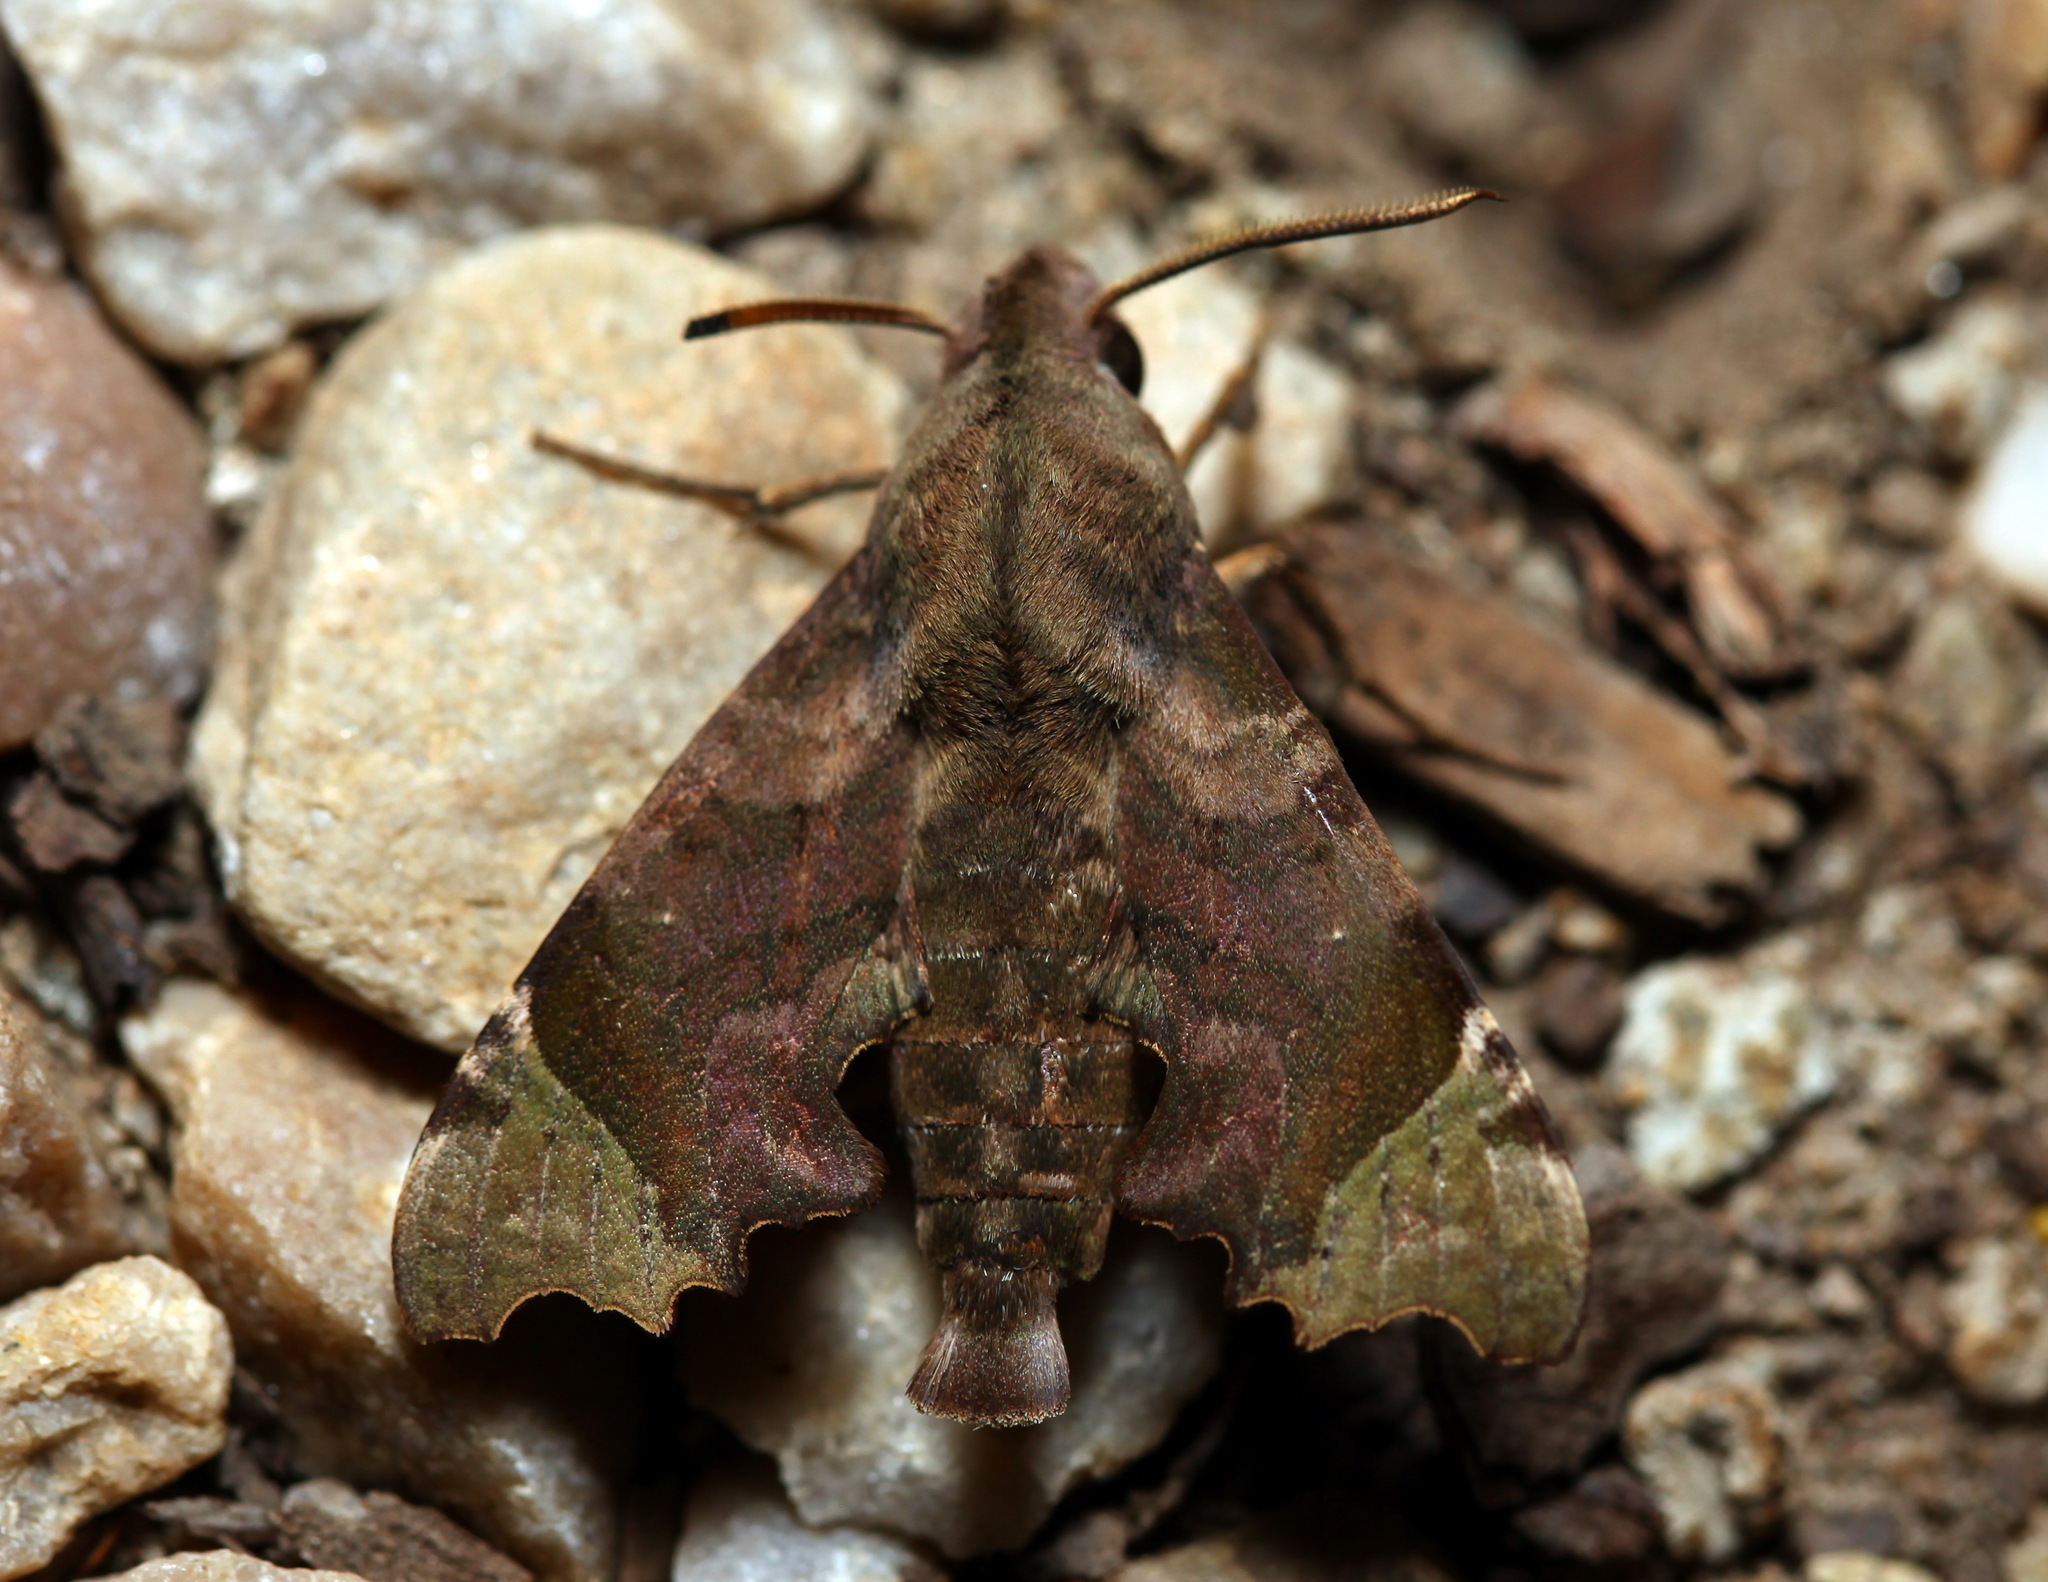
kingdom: Animalia
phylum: Arthropoda
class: Insecta
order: Lepidoptera
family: Sphingidae
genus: Temnora
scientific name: Temnora zantus
